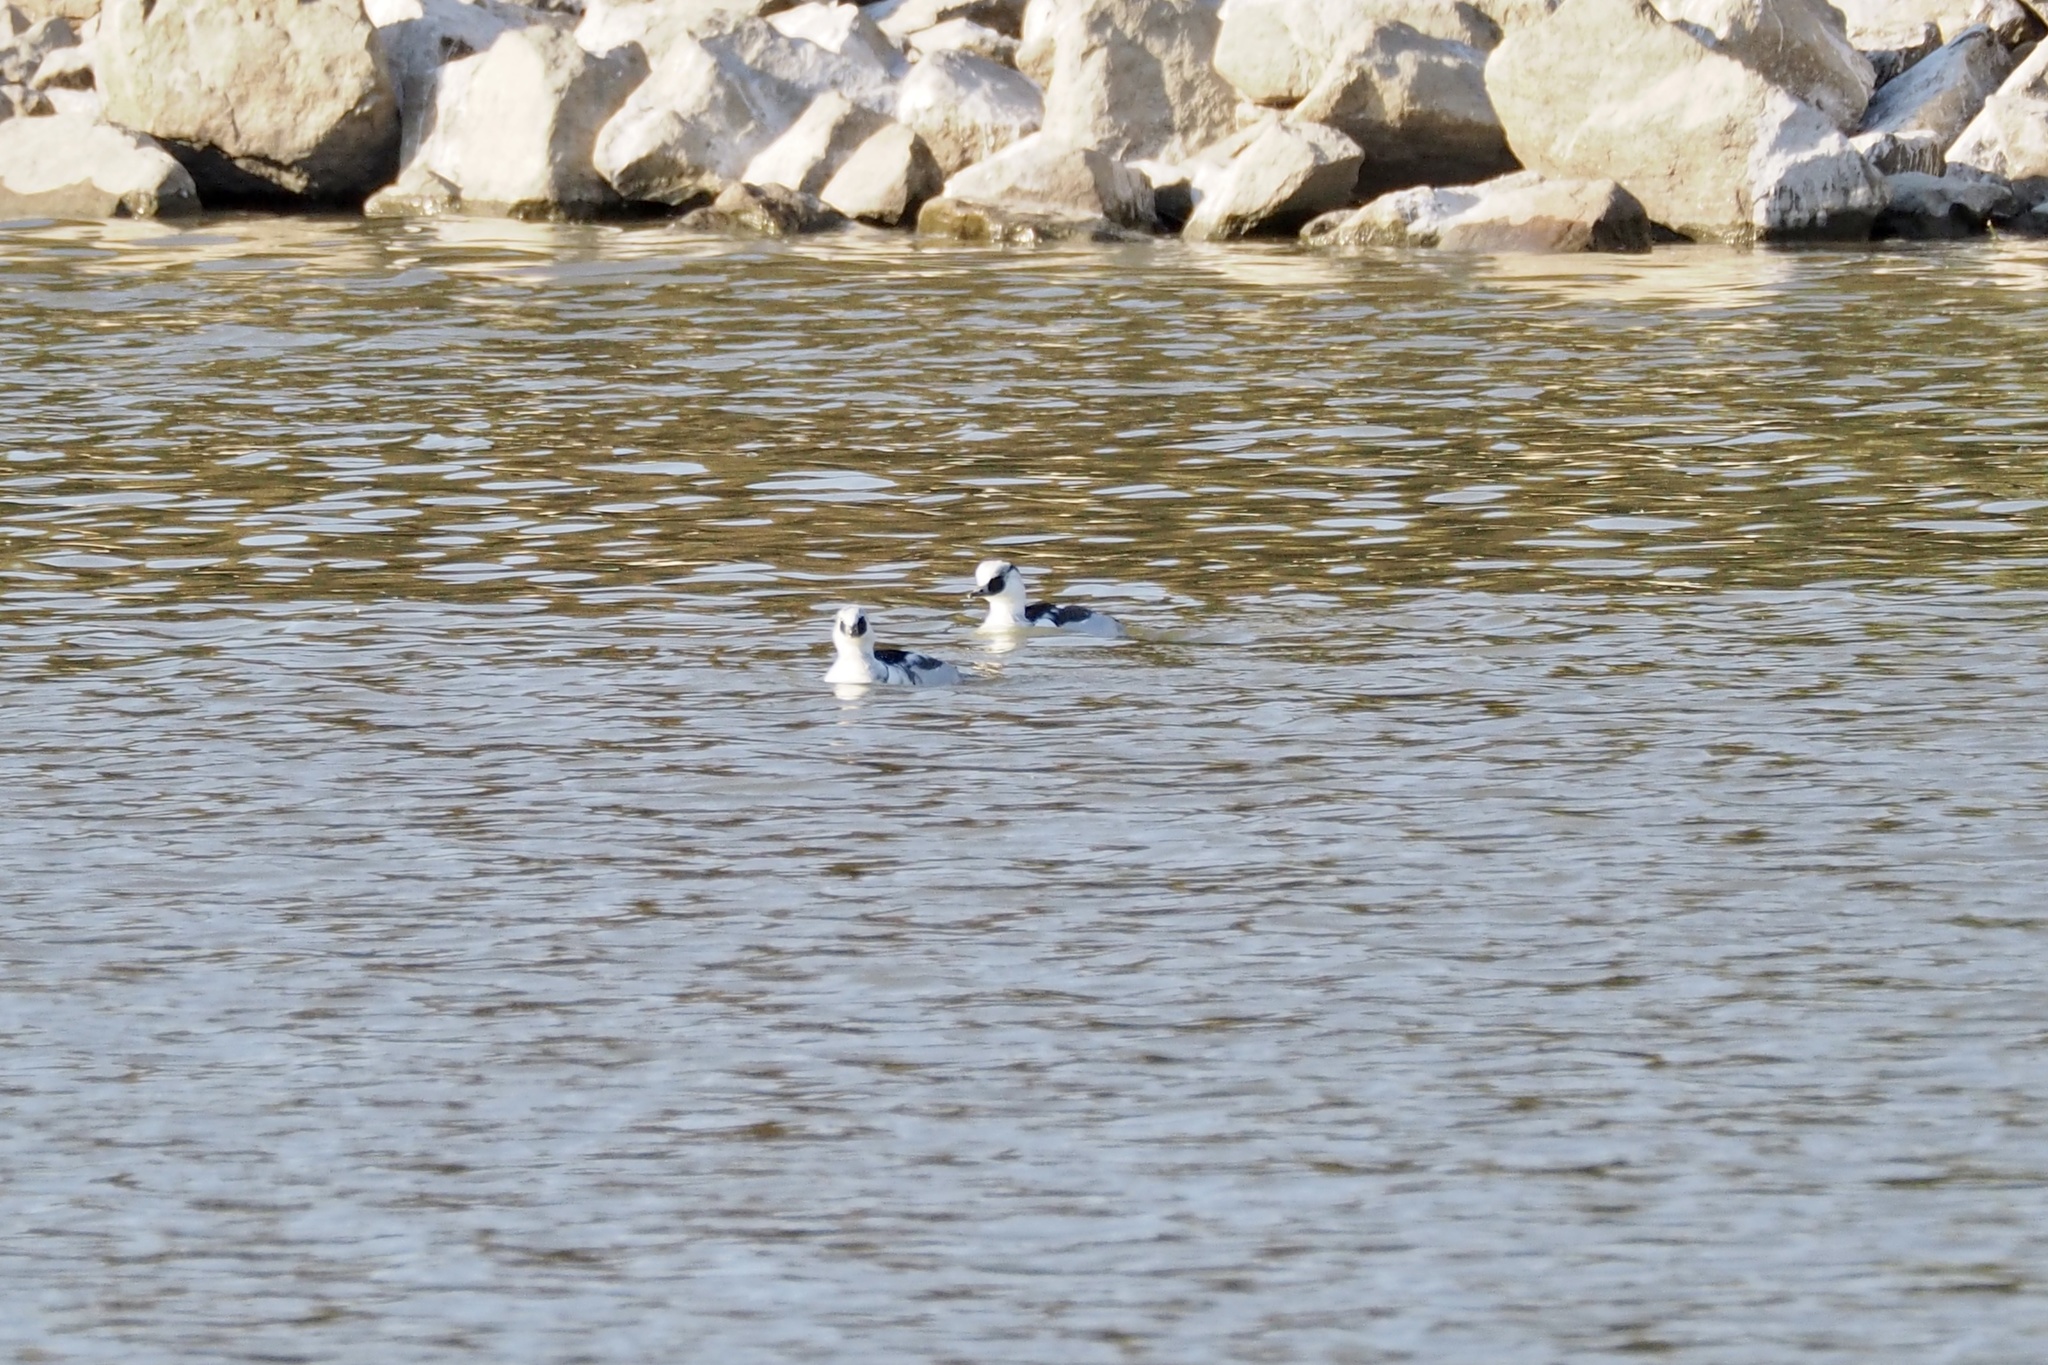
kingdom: Animalia
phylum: Chordata
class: Aves
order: Anseriformes
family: Anatidae
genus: Mergellus
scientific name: Mergellus albellus
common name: Smew
